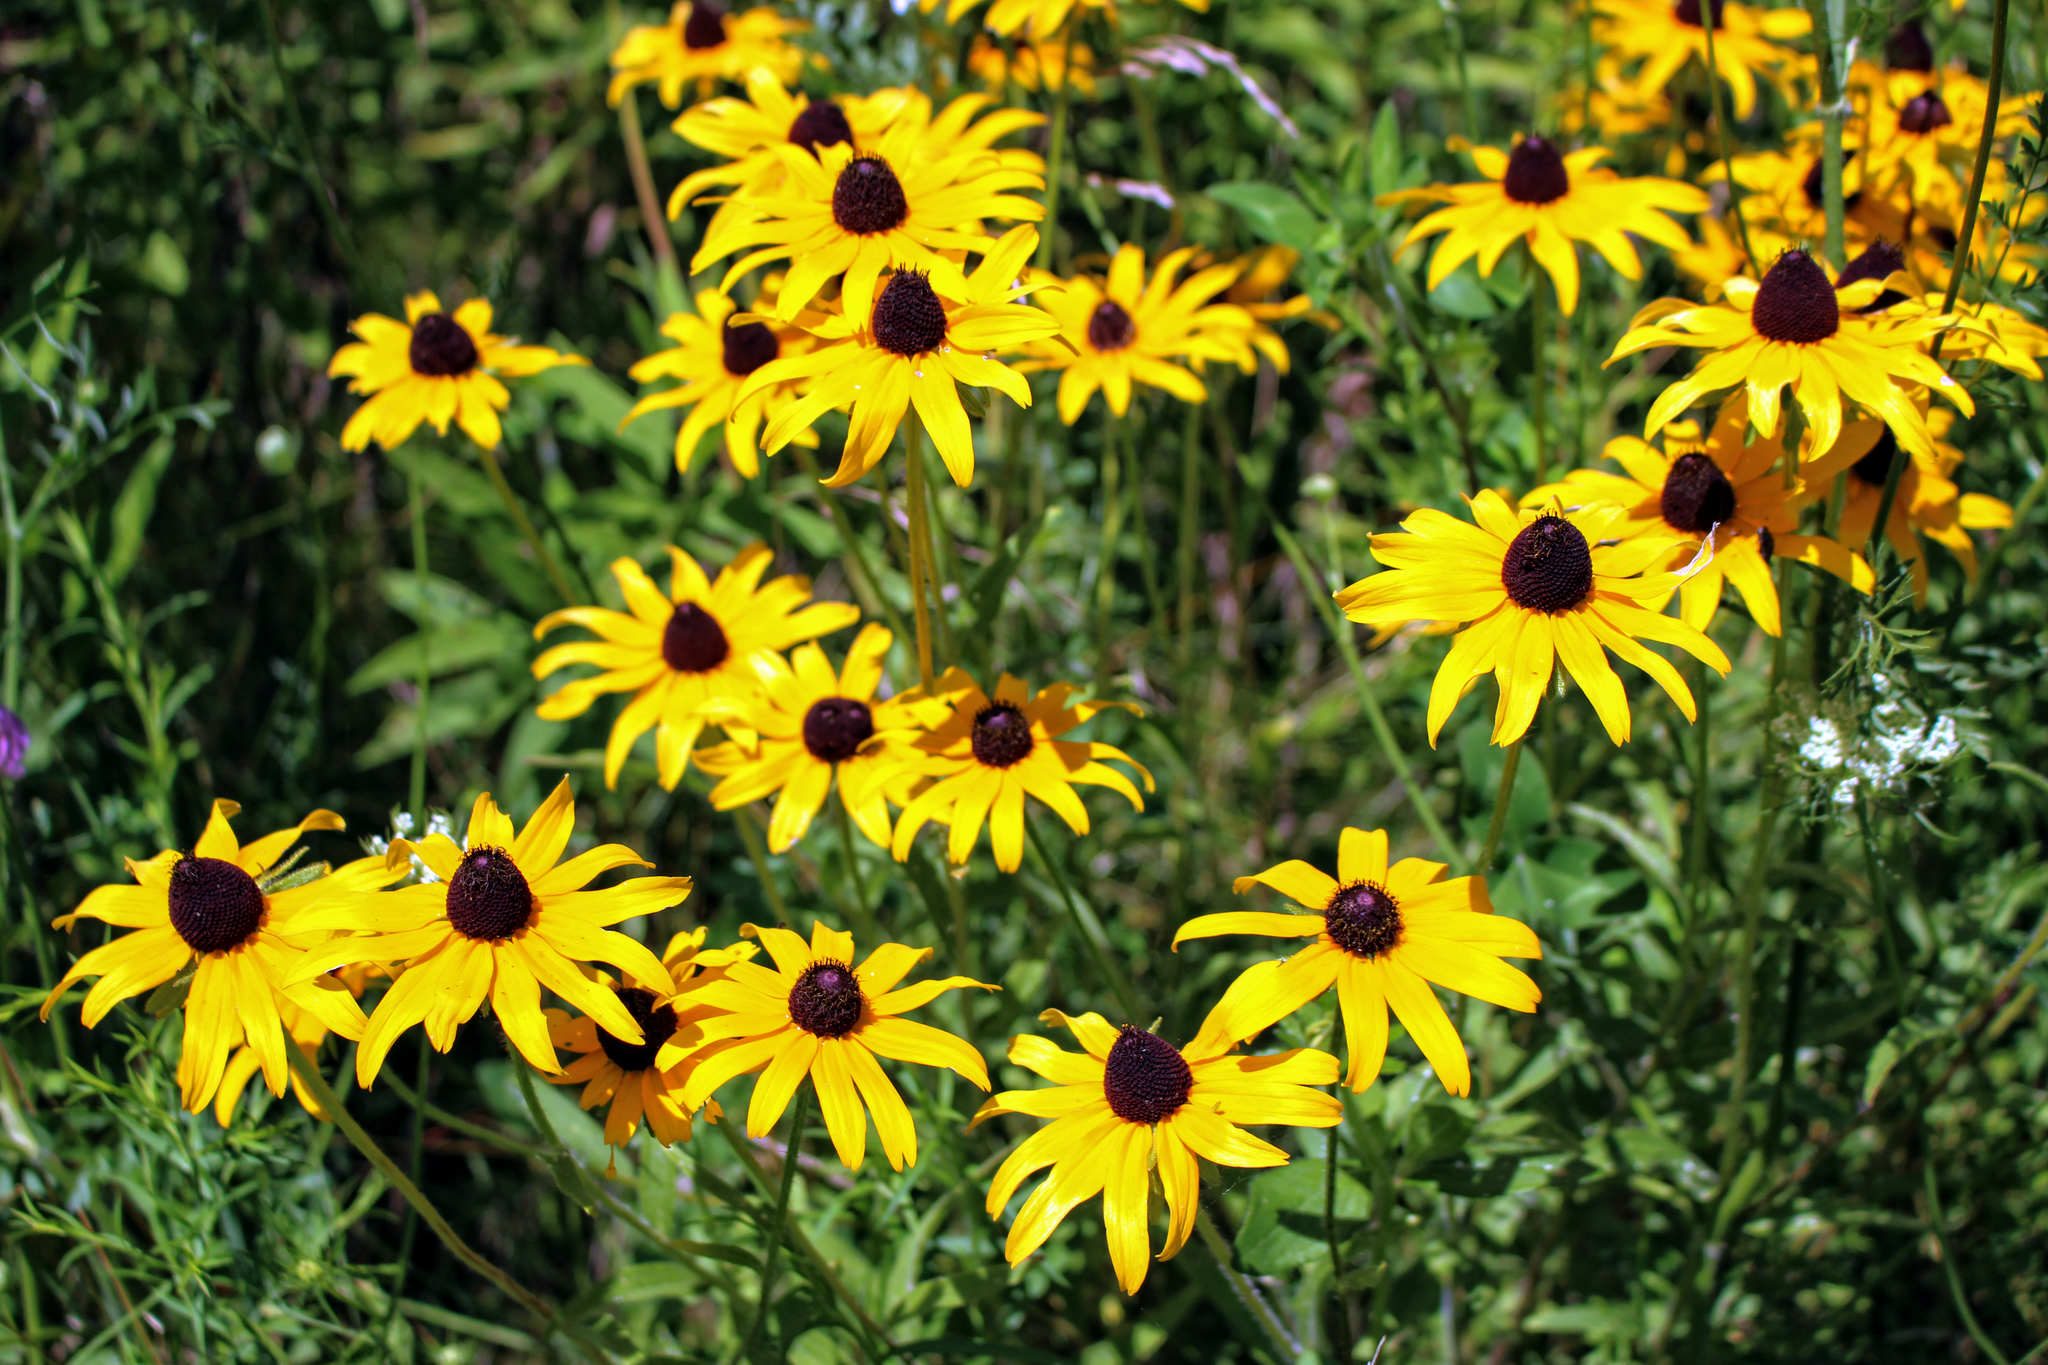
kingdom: Plantae
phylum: Tracheophyta
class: Magnoliopsida
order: Asterales
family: Asteraceae
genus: Rudbeckia
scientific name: Rudbeckia hirta
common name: Black-eyed-susan
